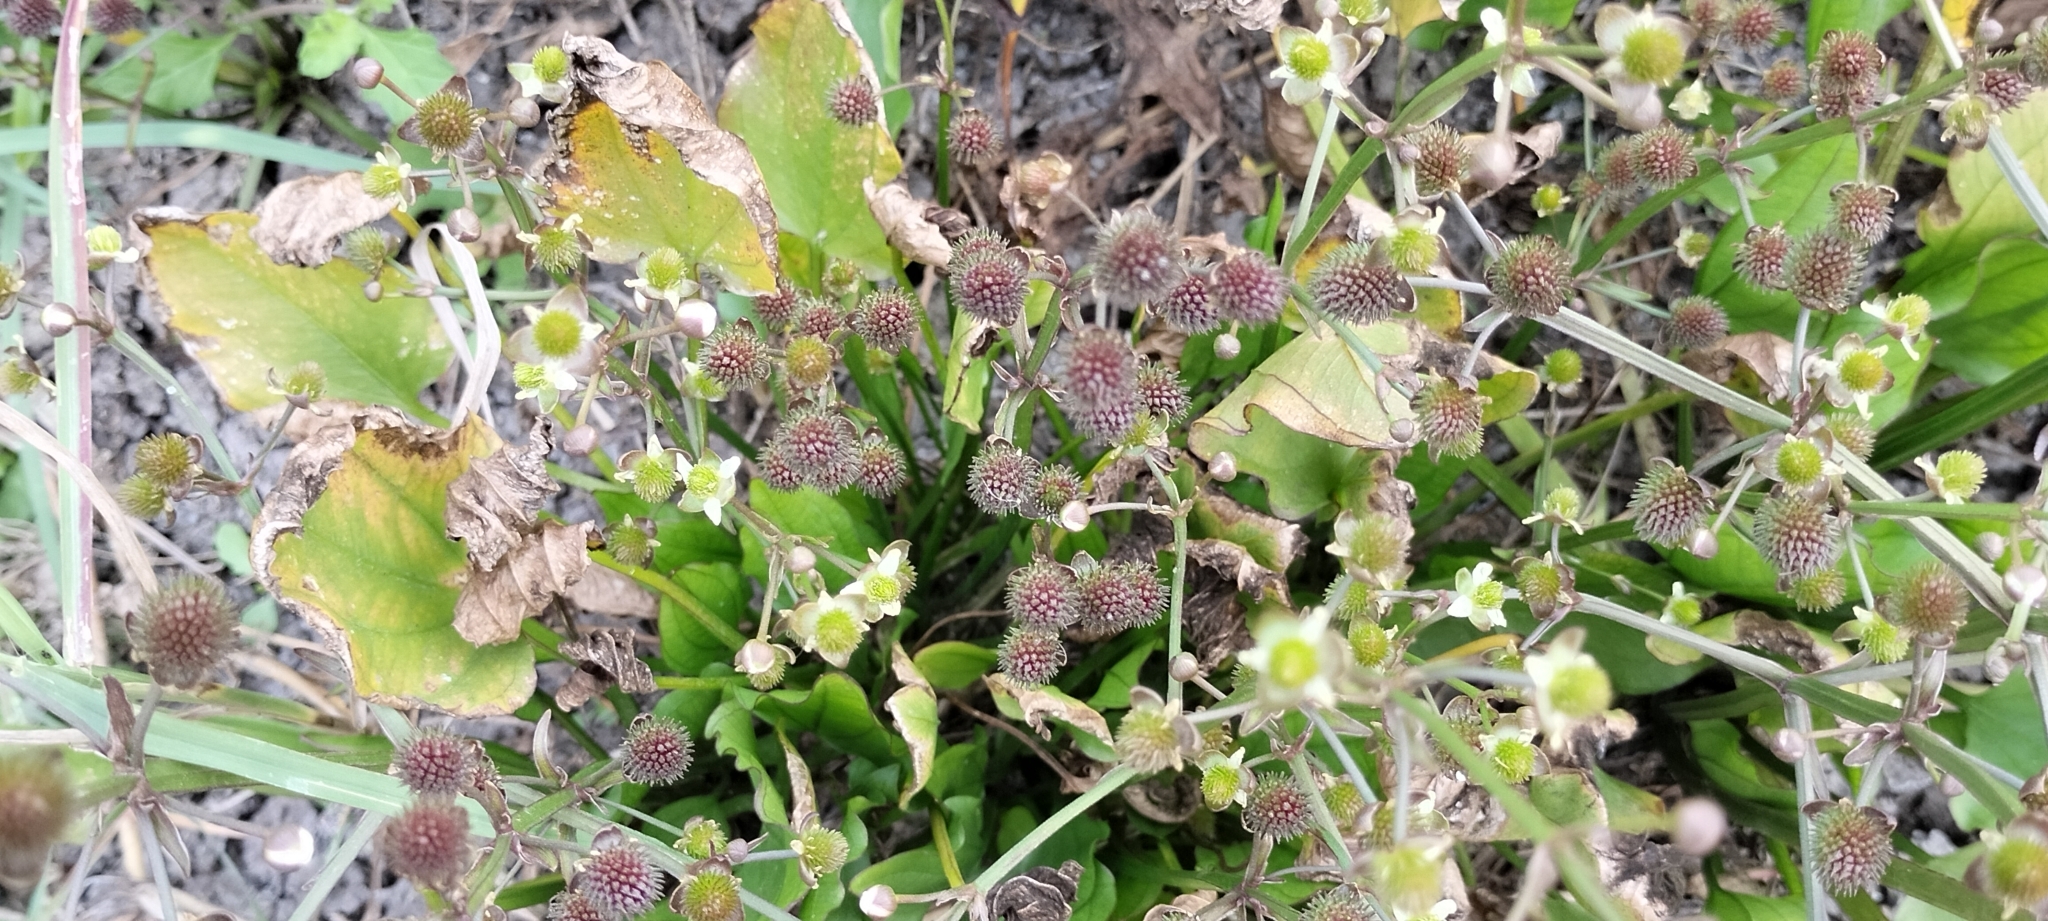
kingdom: Plantae
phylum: Tracheophyta
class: Liliopsida
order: Alismatales
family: Alismataceae
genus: Echinodorus
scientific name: Echinodorus berteroi
